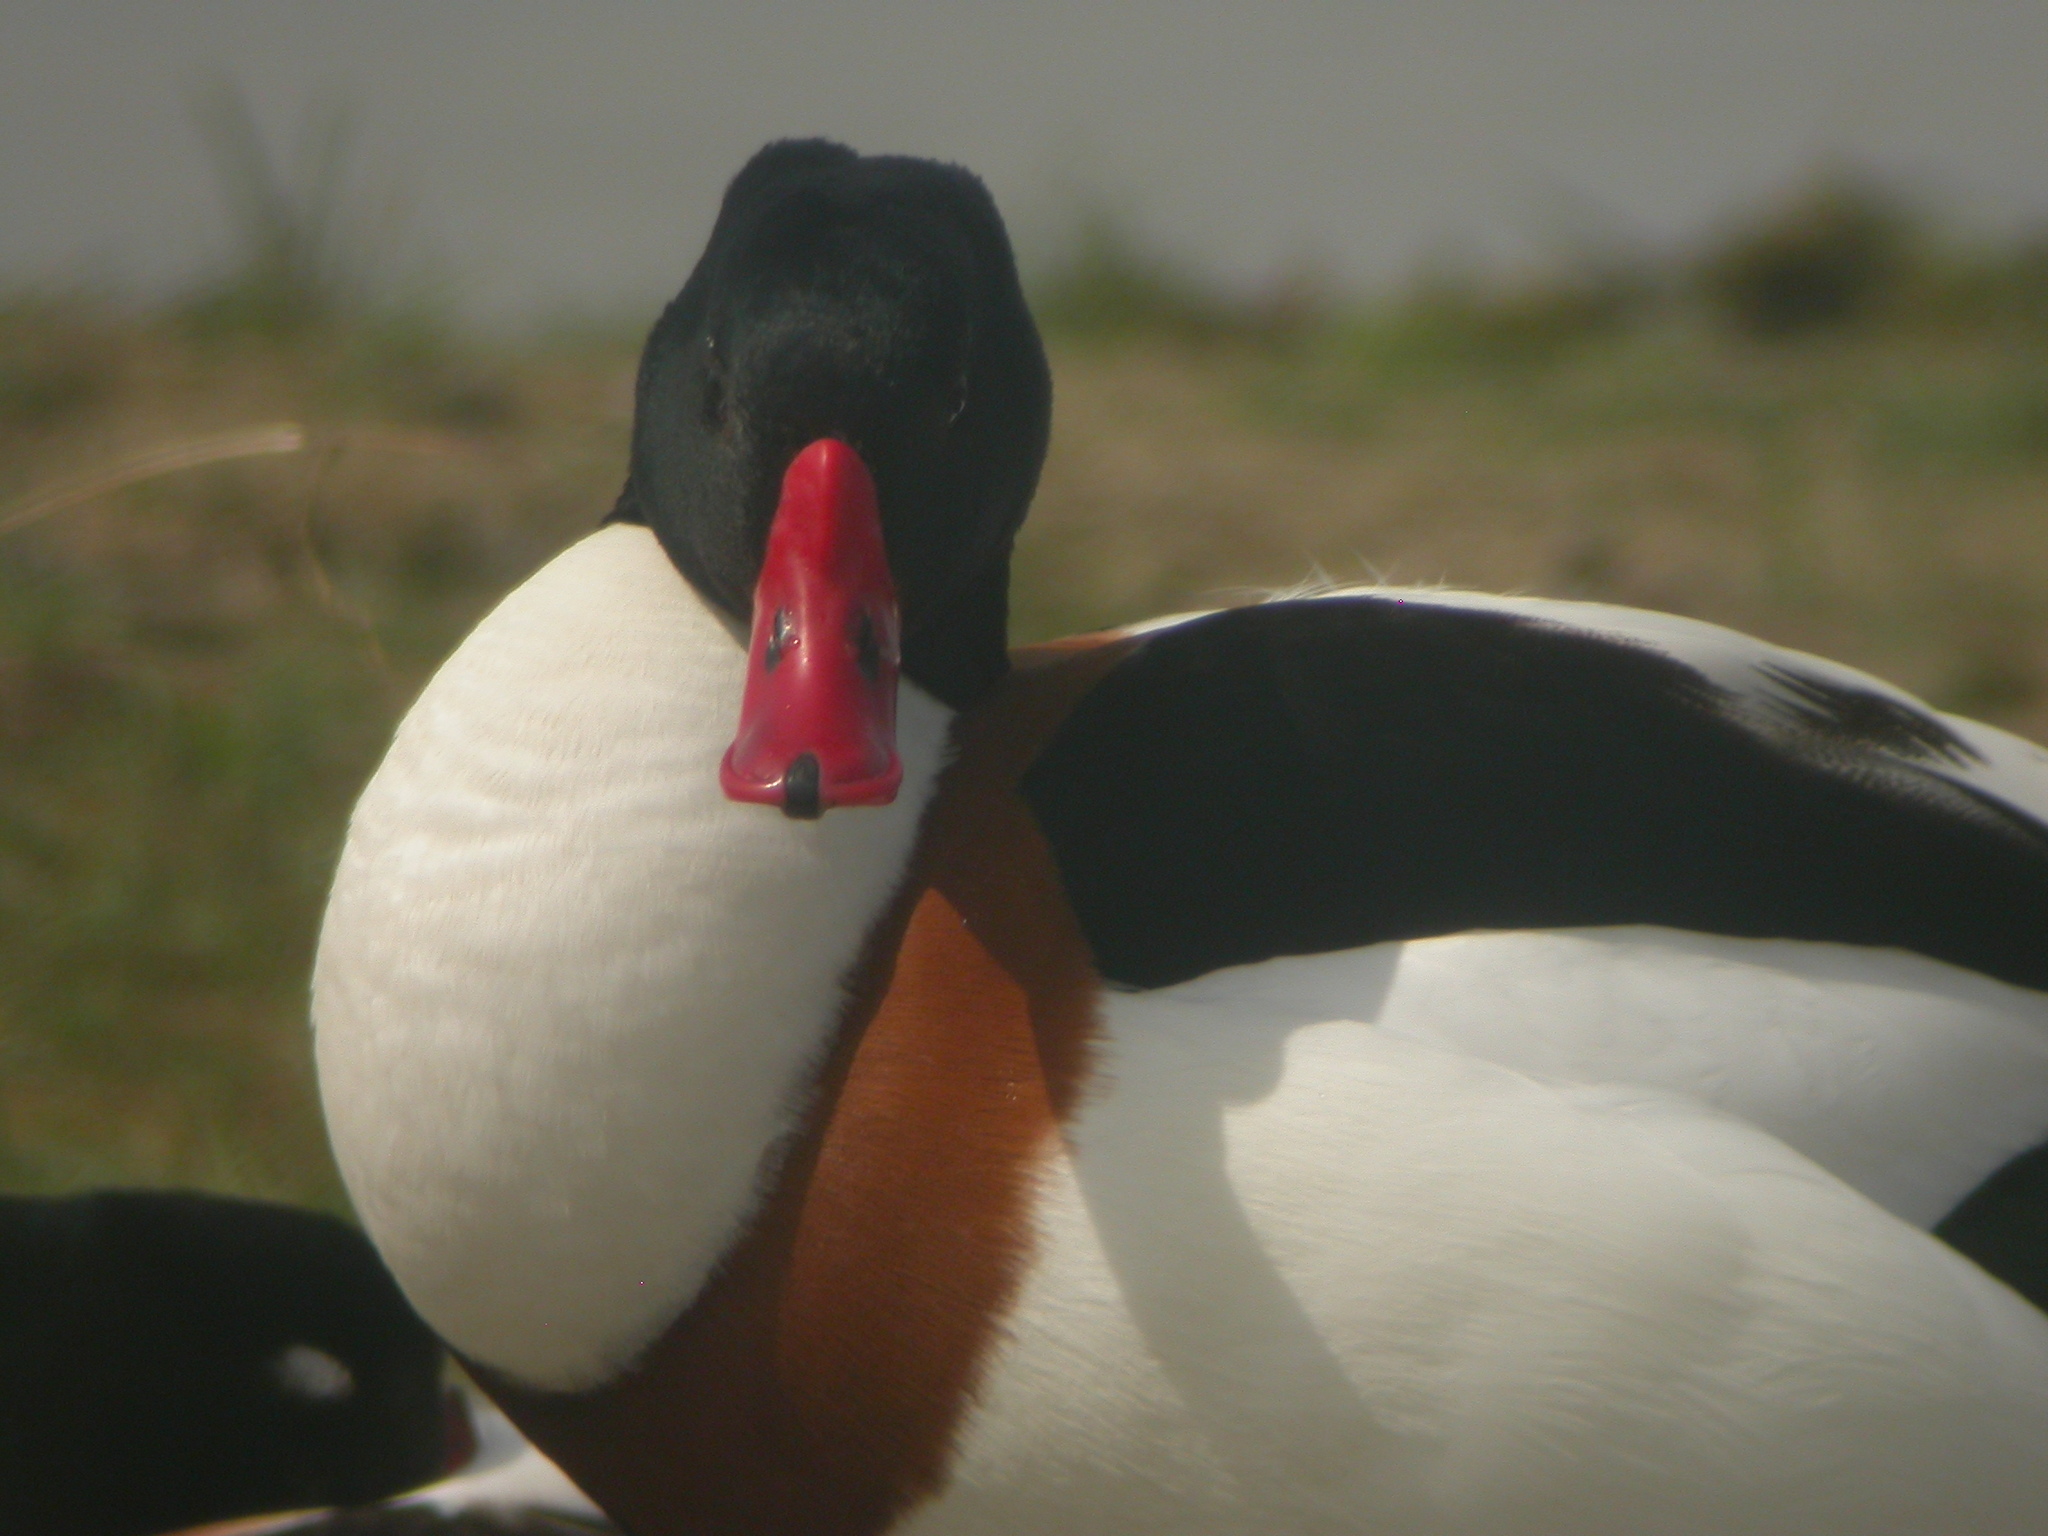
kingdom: Animalia
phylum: Chordata
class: Aves
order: Anseriformes
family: Anatidae
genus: Tadorna
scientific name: Tadorna tadorna
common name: Common shelduck
